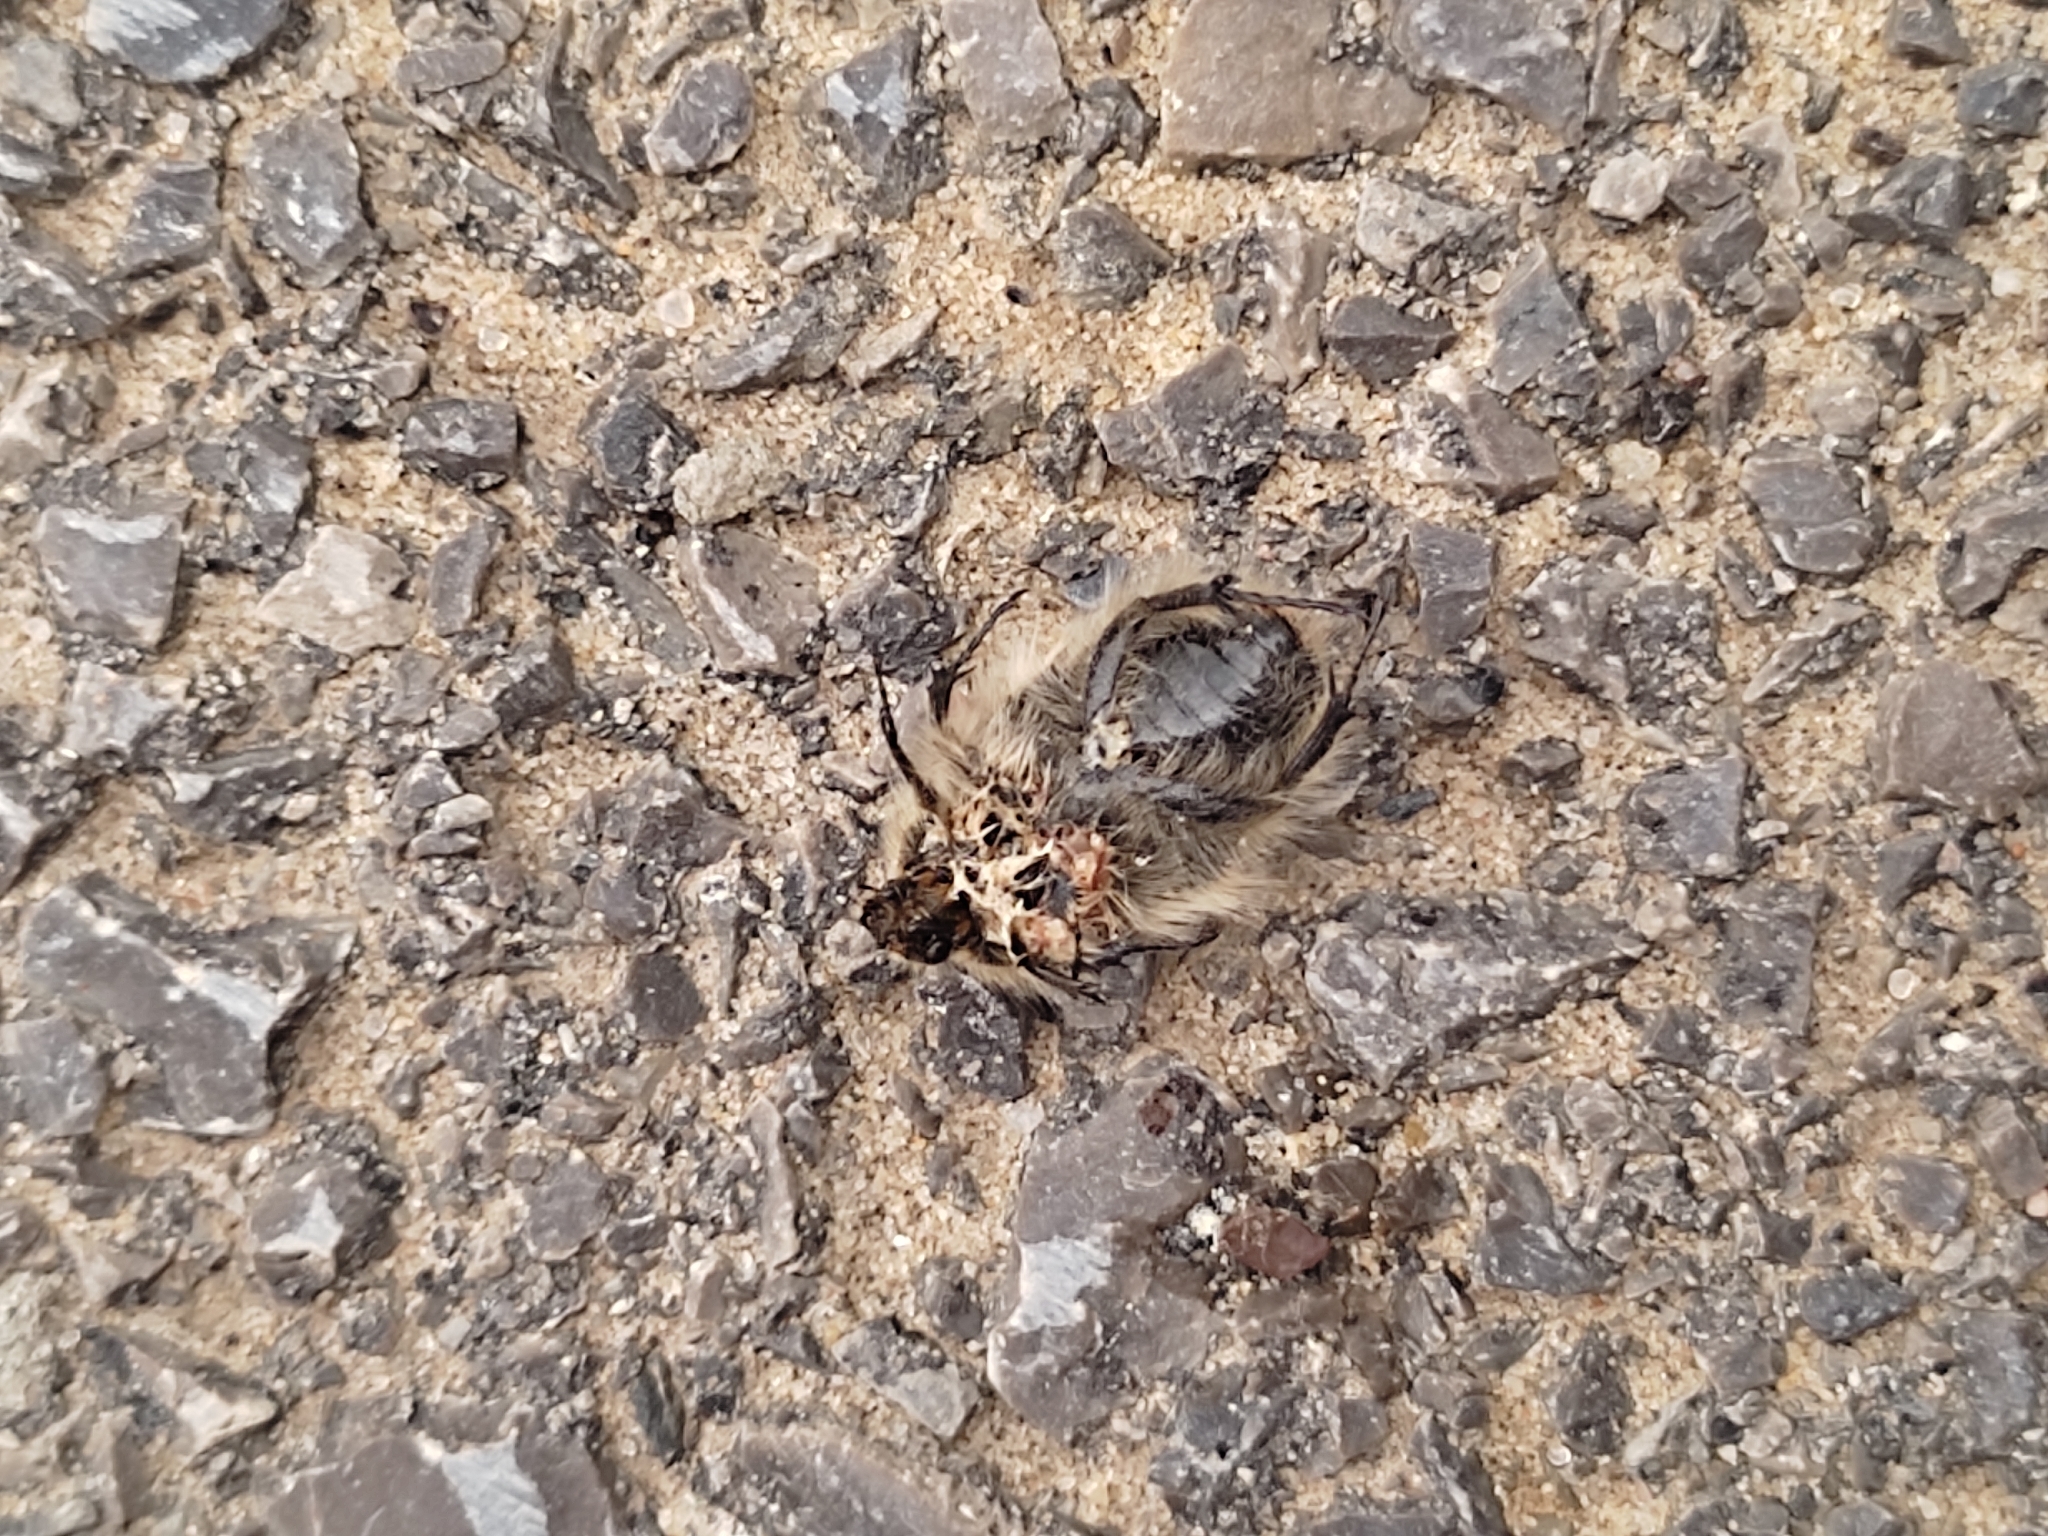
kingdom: Animalia
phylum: Arthropoda
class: Insecta
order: Coleoptera
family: Scarabaeidae
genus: Tropinota
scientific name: Tropinota hirta
